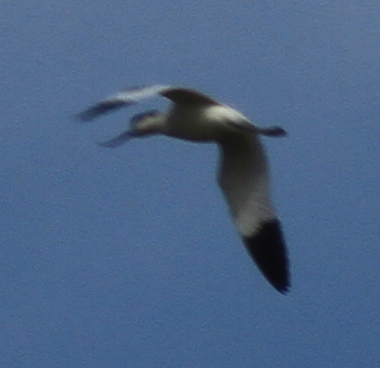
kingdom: Animalia
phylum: Chordata
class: Aves
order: Charadriiformes
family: Recurvirostridae
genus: Recurvirostra
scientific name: Recurvirostra avosetta
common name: Pied avocet
